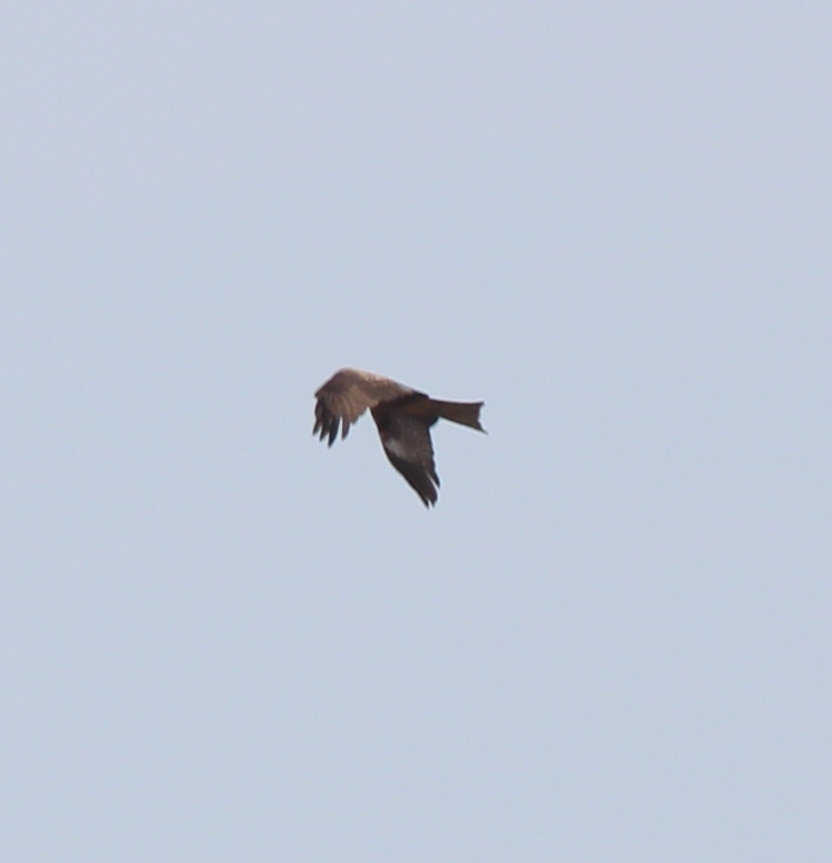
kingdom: Animalia
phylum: Chordata
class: Aves
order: Accipitriformes
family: Accipitridae
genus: Milvus
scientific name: Milvus migrans
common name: Black kite
